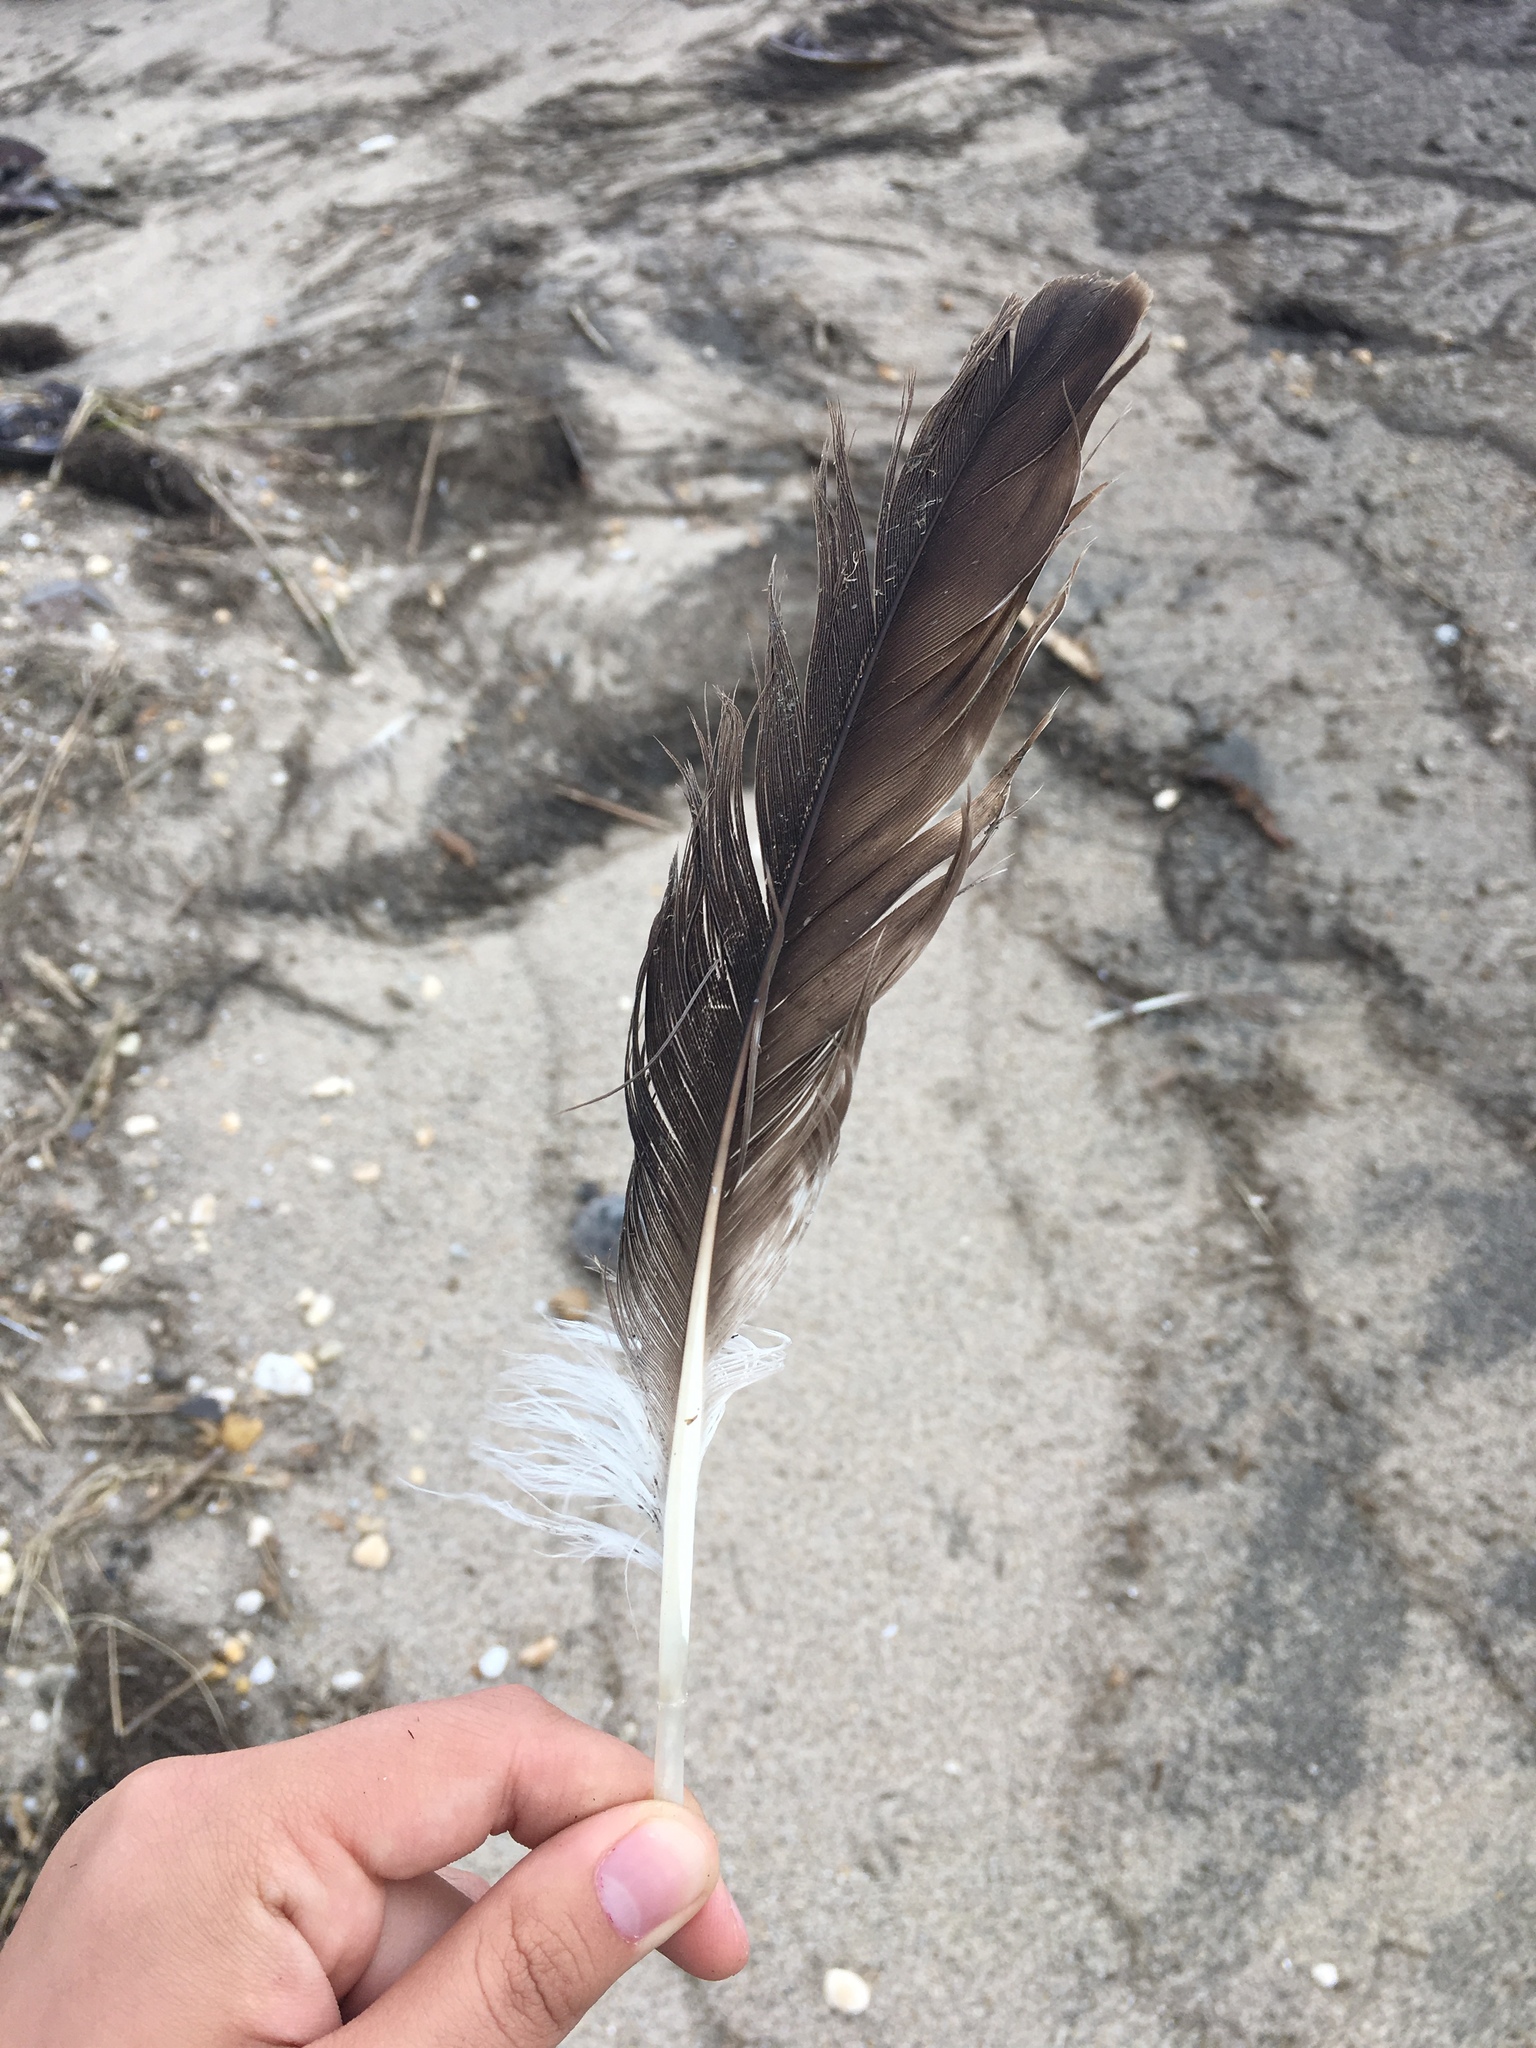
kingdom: Animalia
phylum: Chordata
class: Aves
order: Accipitriformes
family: Pandionidae
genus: Pandion
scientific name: Pandion haliaetus
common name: Osprey
